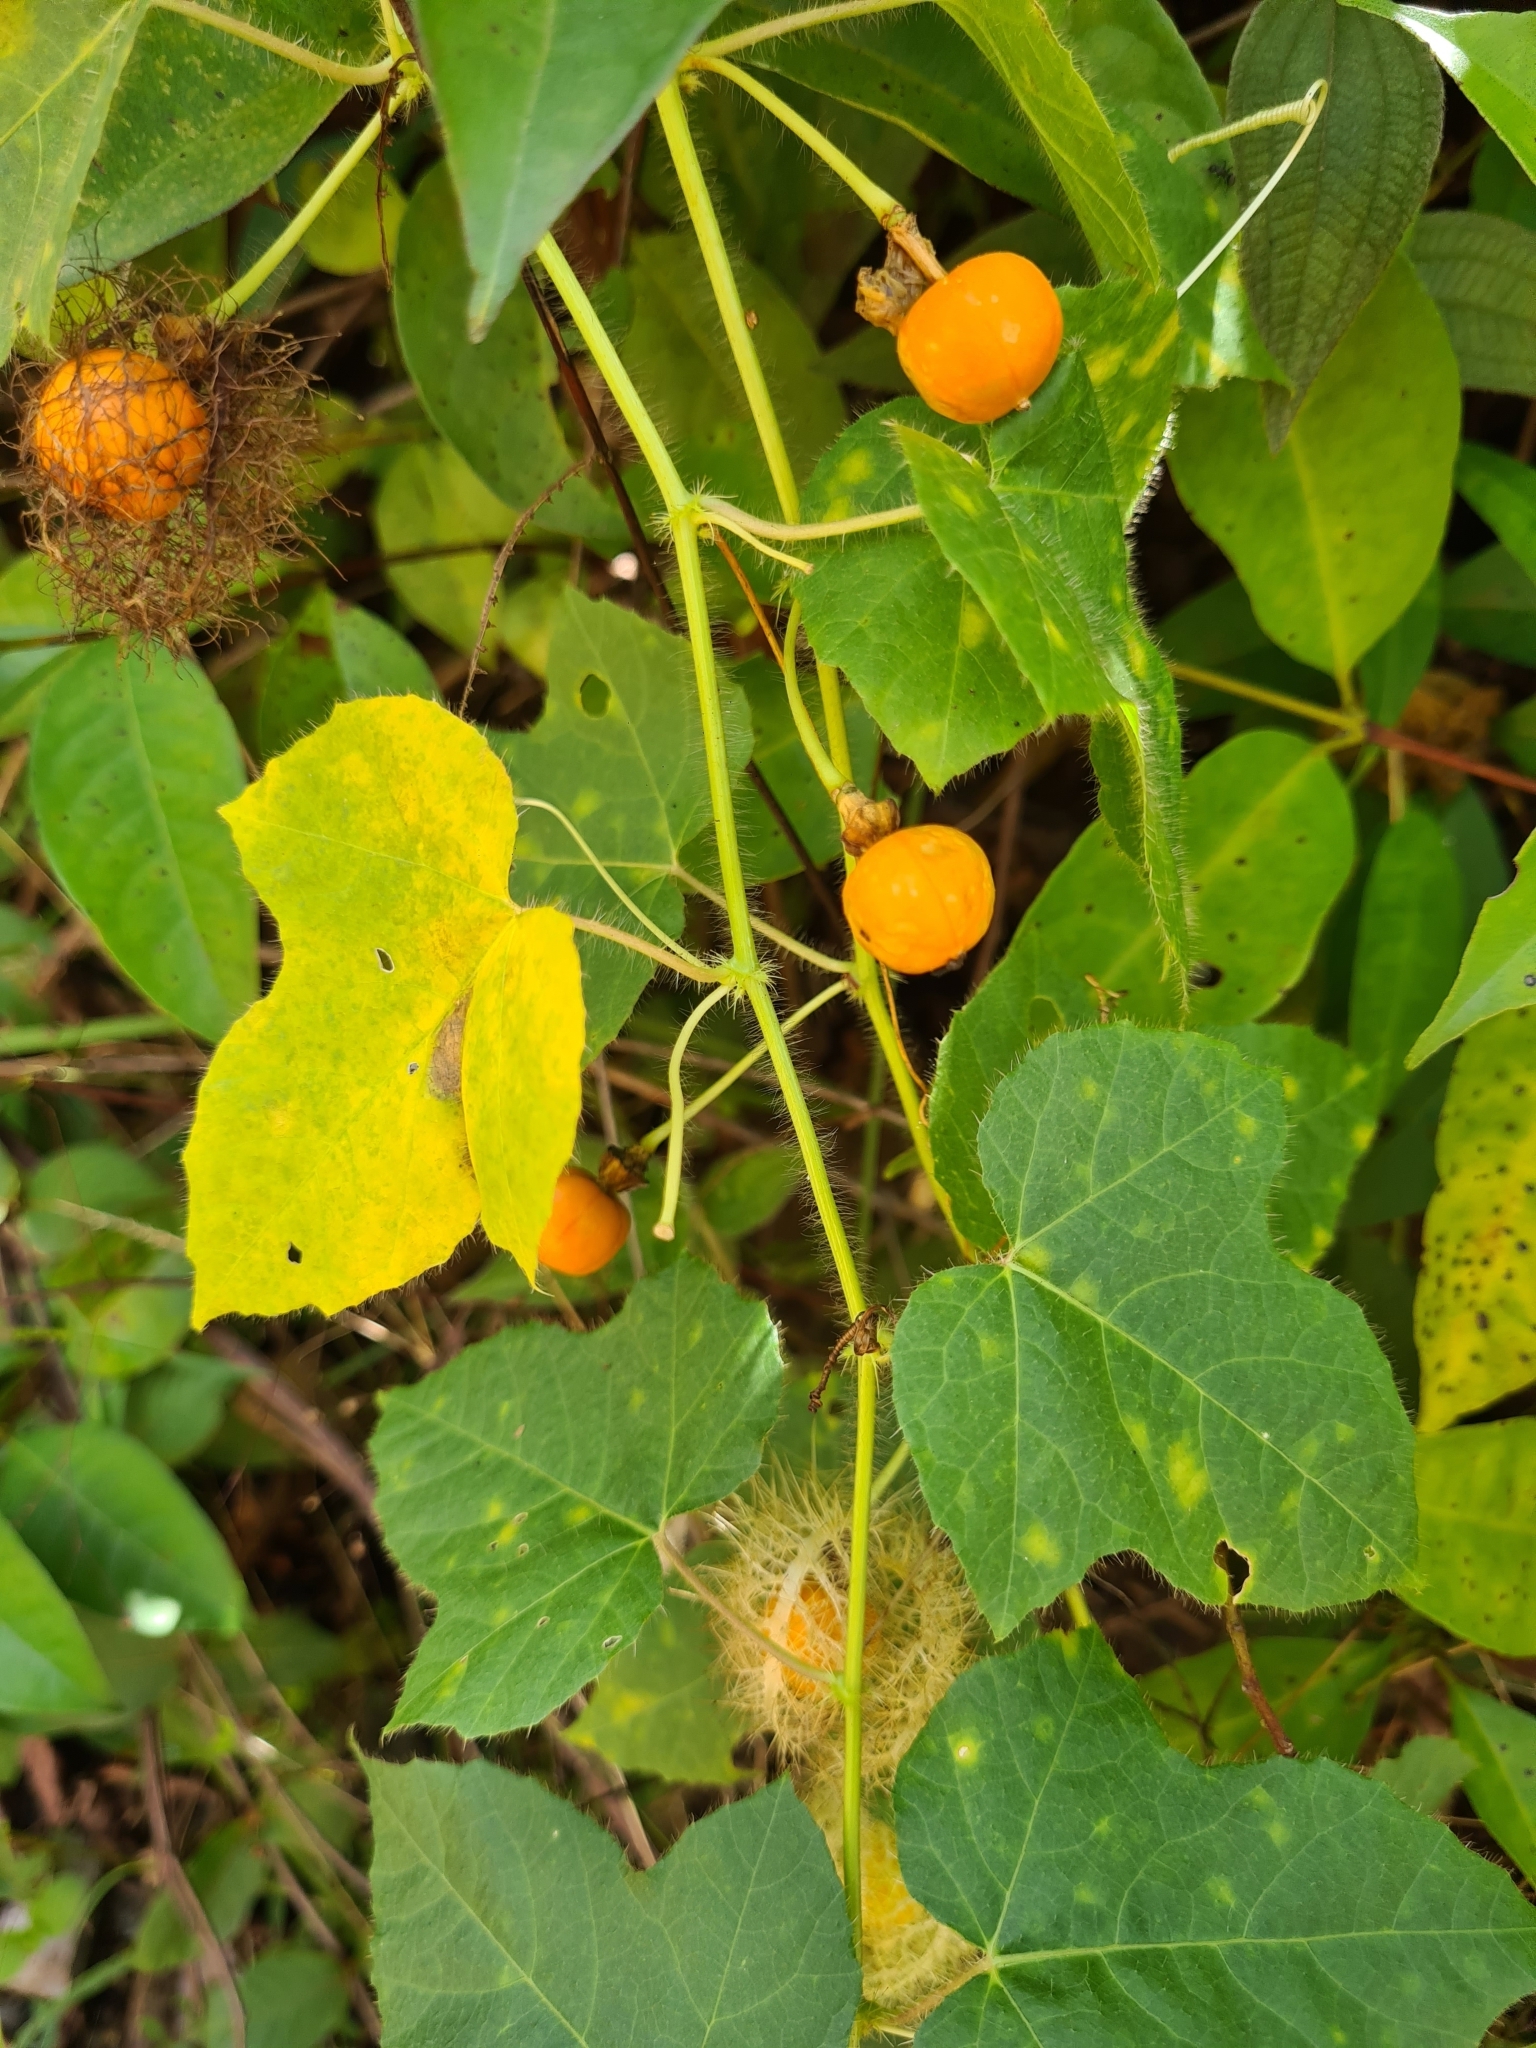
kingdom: Plantae
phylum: Tracheophyta
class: Magnoliopsida
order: Malpighiales
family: Passifloraceae
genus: Passiflora
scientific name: Passiflora foetida
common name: Fetid passionflower
